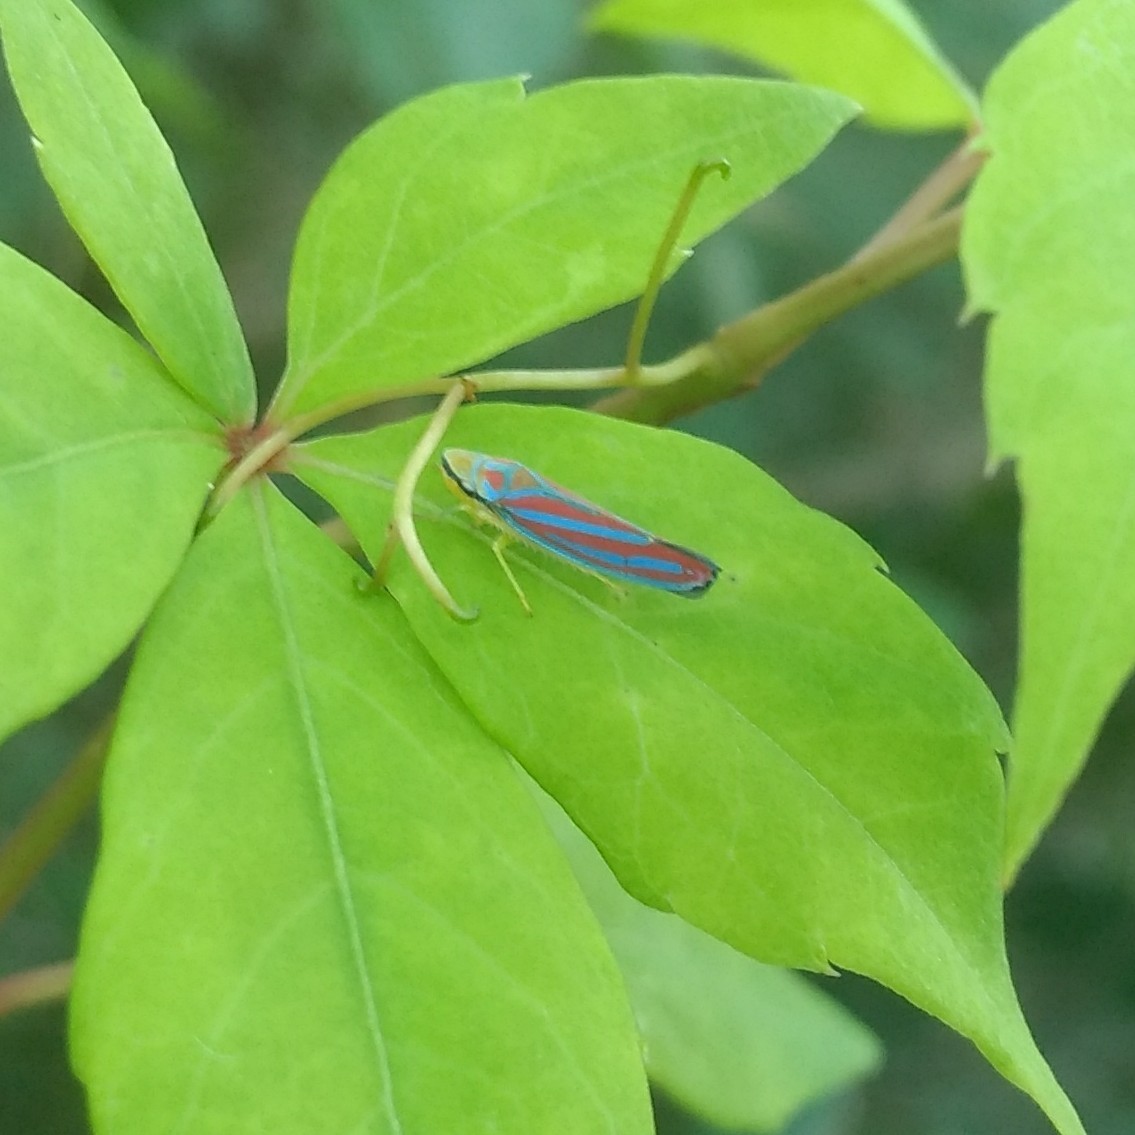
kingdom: Animalia
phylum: Arthropoda
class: Insecta
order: Hemiptera
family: Cicadellidae
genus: Graphocephala
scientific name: Graphocephala coccinea
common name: Candy-striped leafhopper
